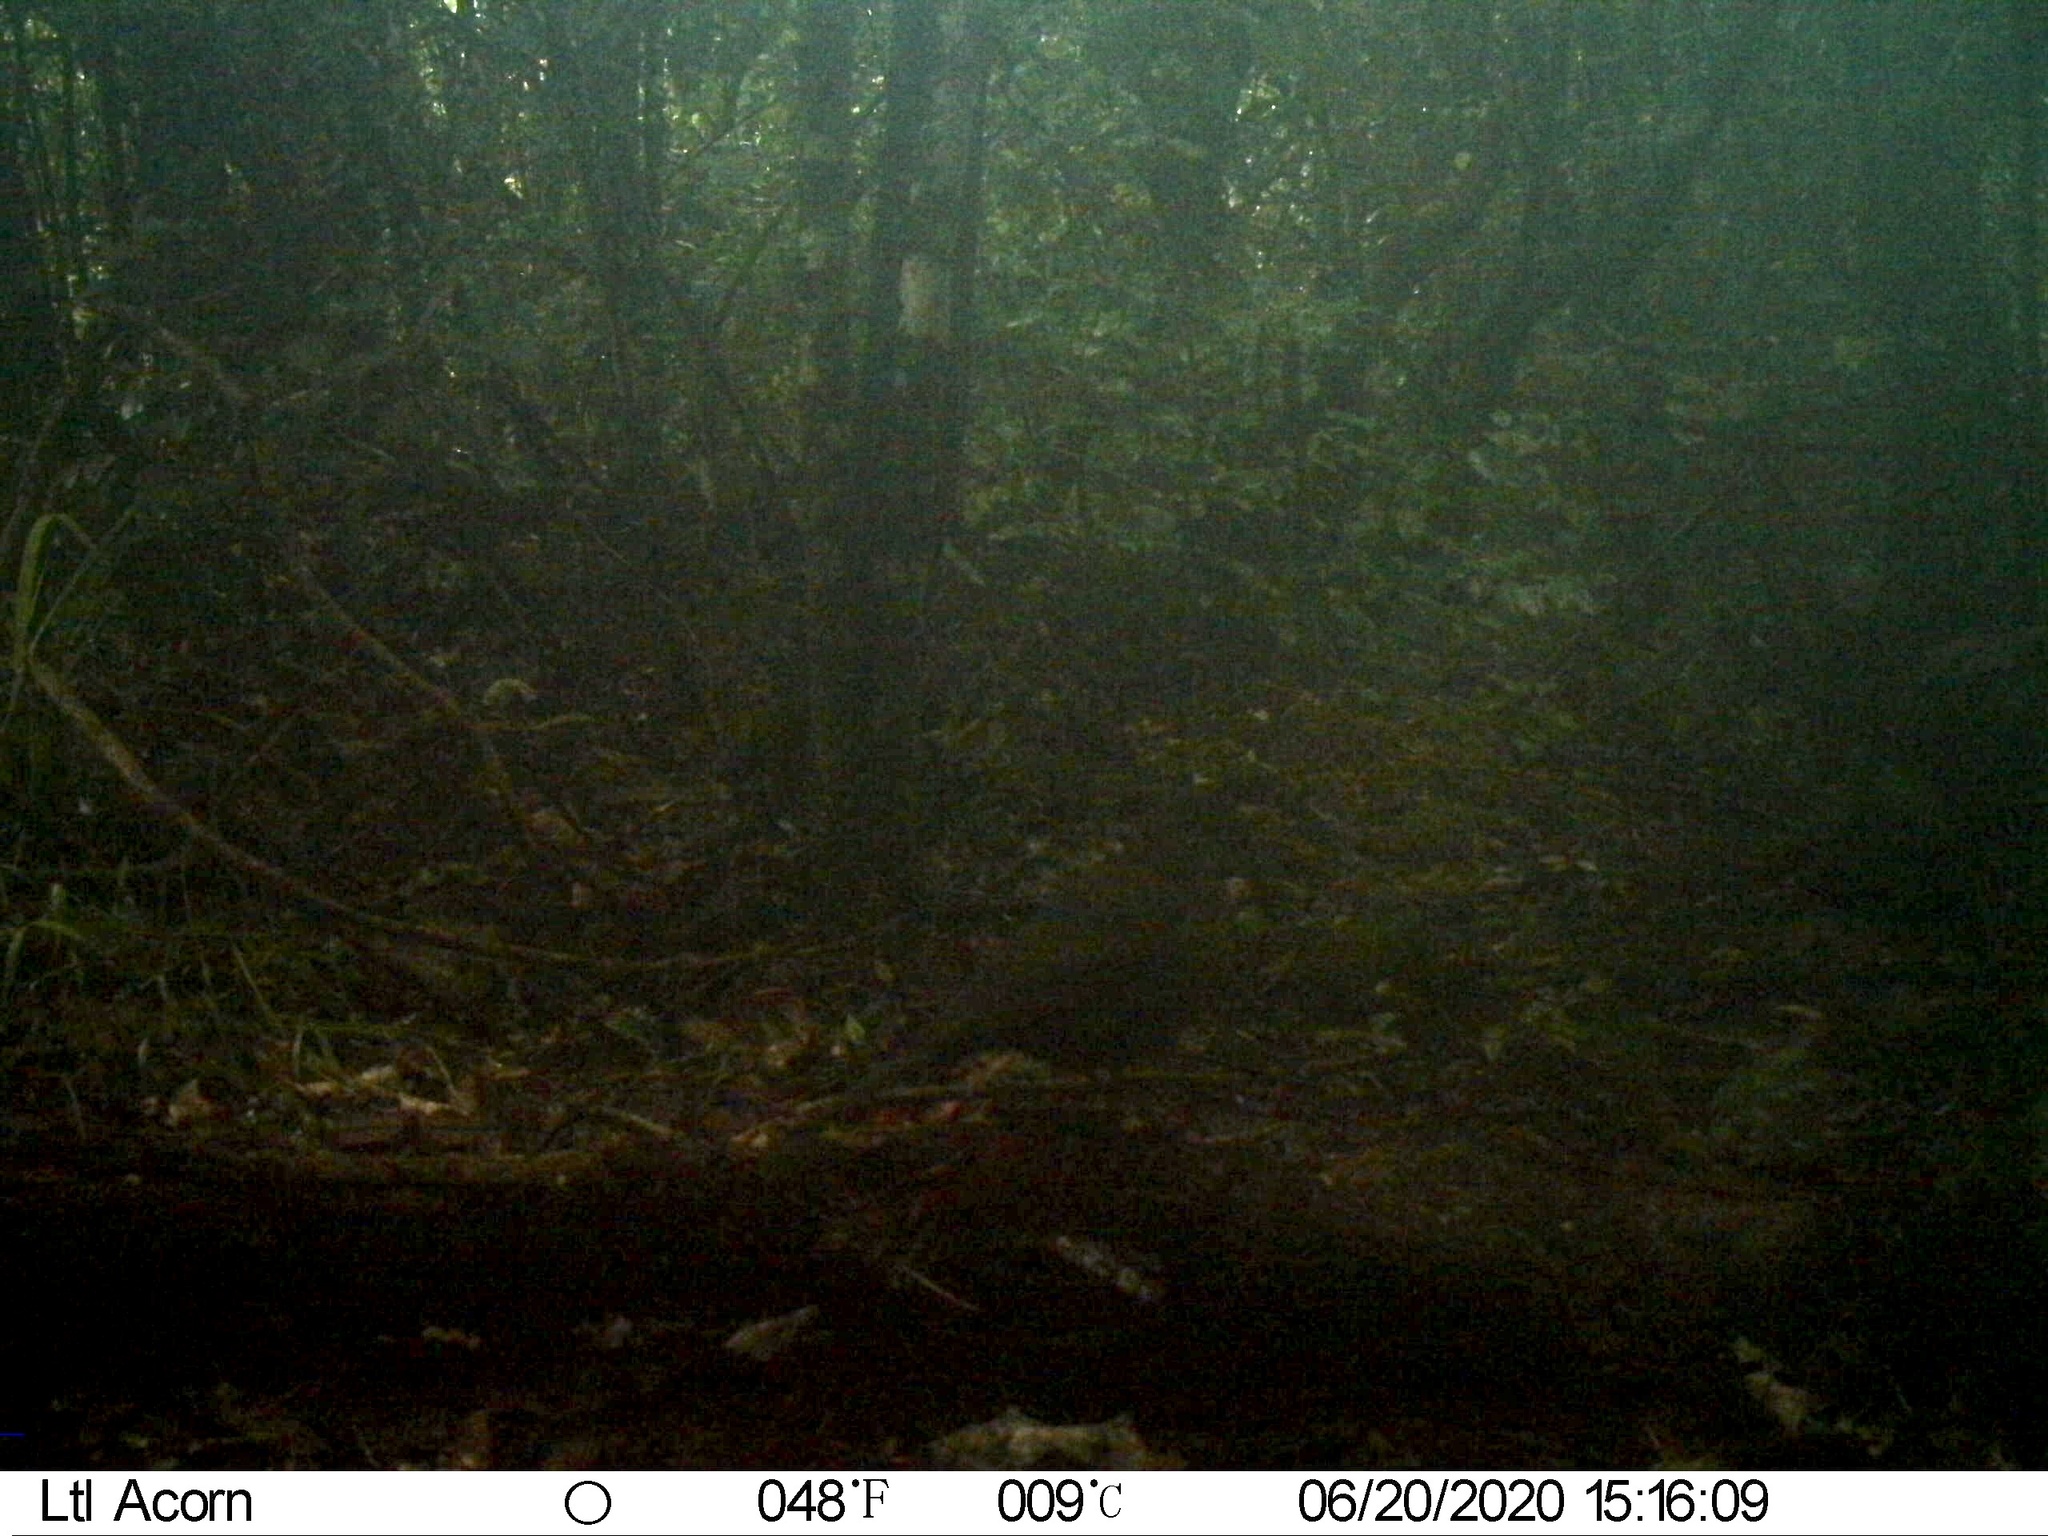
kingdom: Animalia
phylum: Chordata
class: Aves
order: Passeriformes
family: Turdidae
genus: Turdus
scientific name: Turdus merula
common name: Common blackbird
